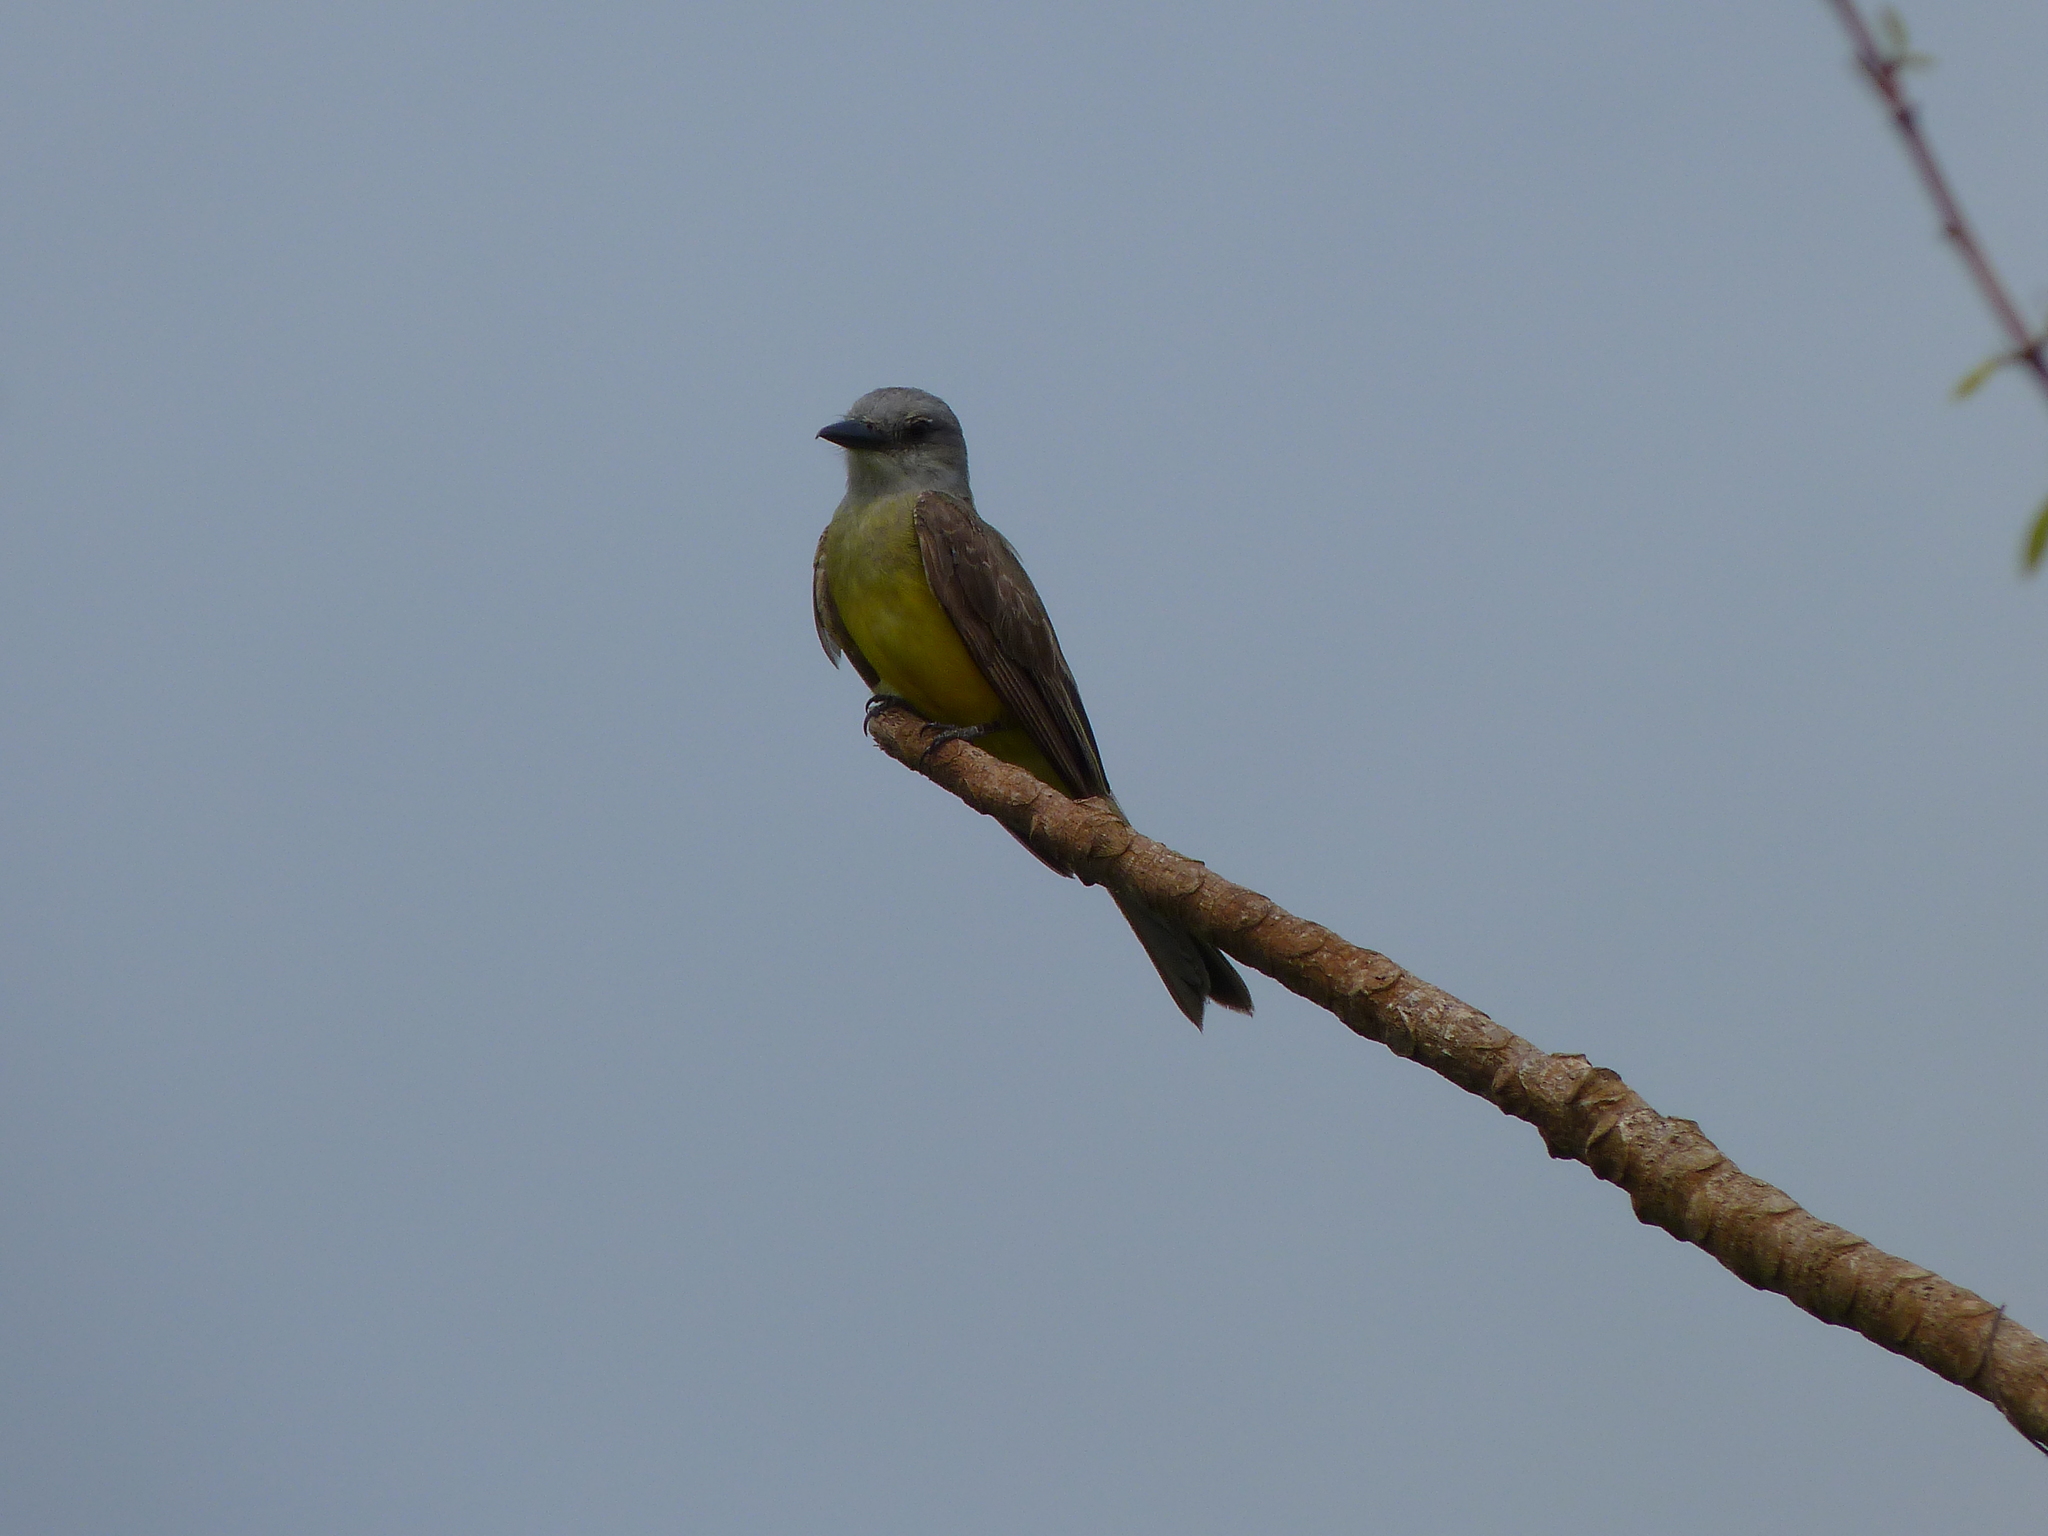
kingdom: Animalia
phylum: Chordata
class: Aves
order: Passeriformes
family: Tyrannidae
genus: Tyrannus
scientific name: Tyrannus melancholicus
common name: Tropical kingbird
